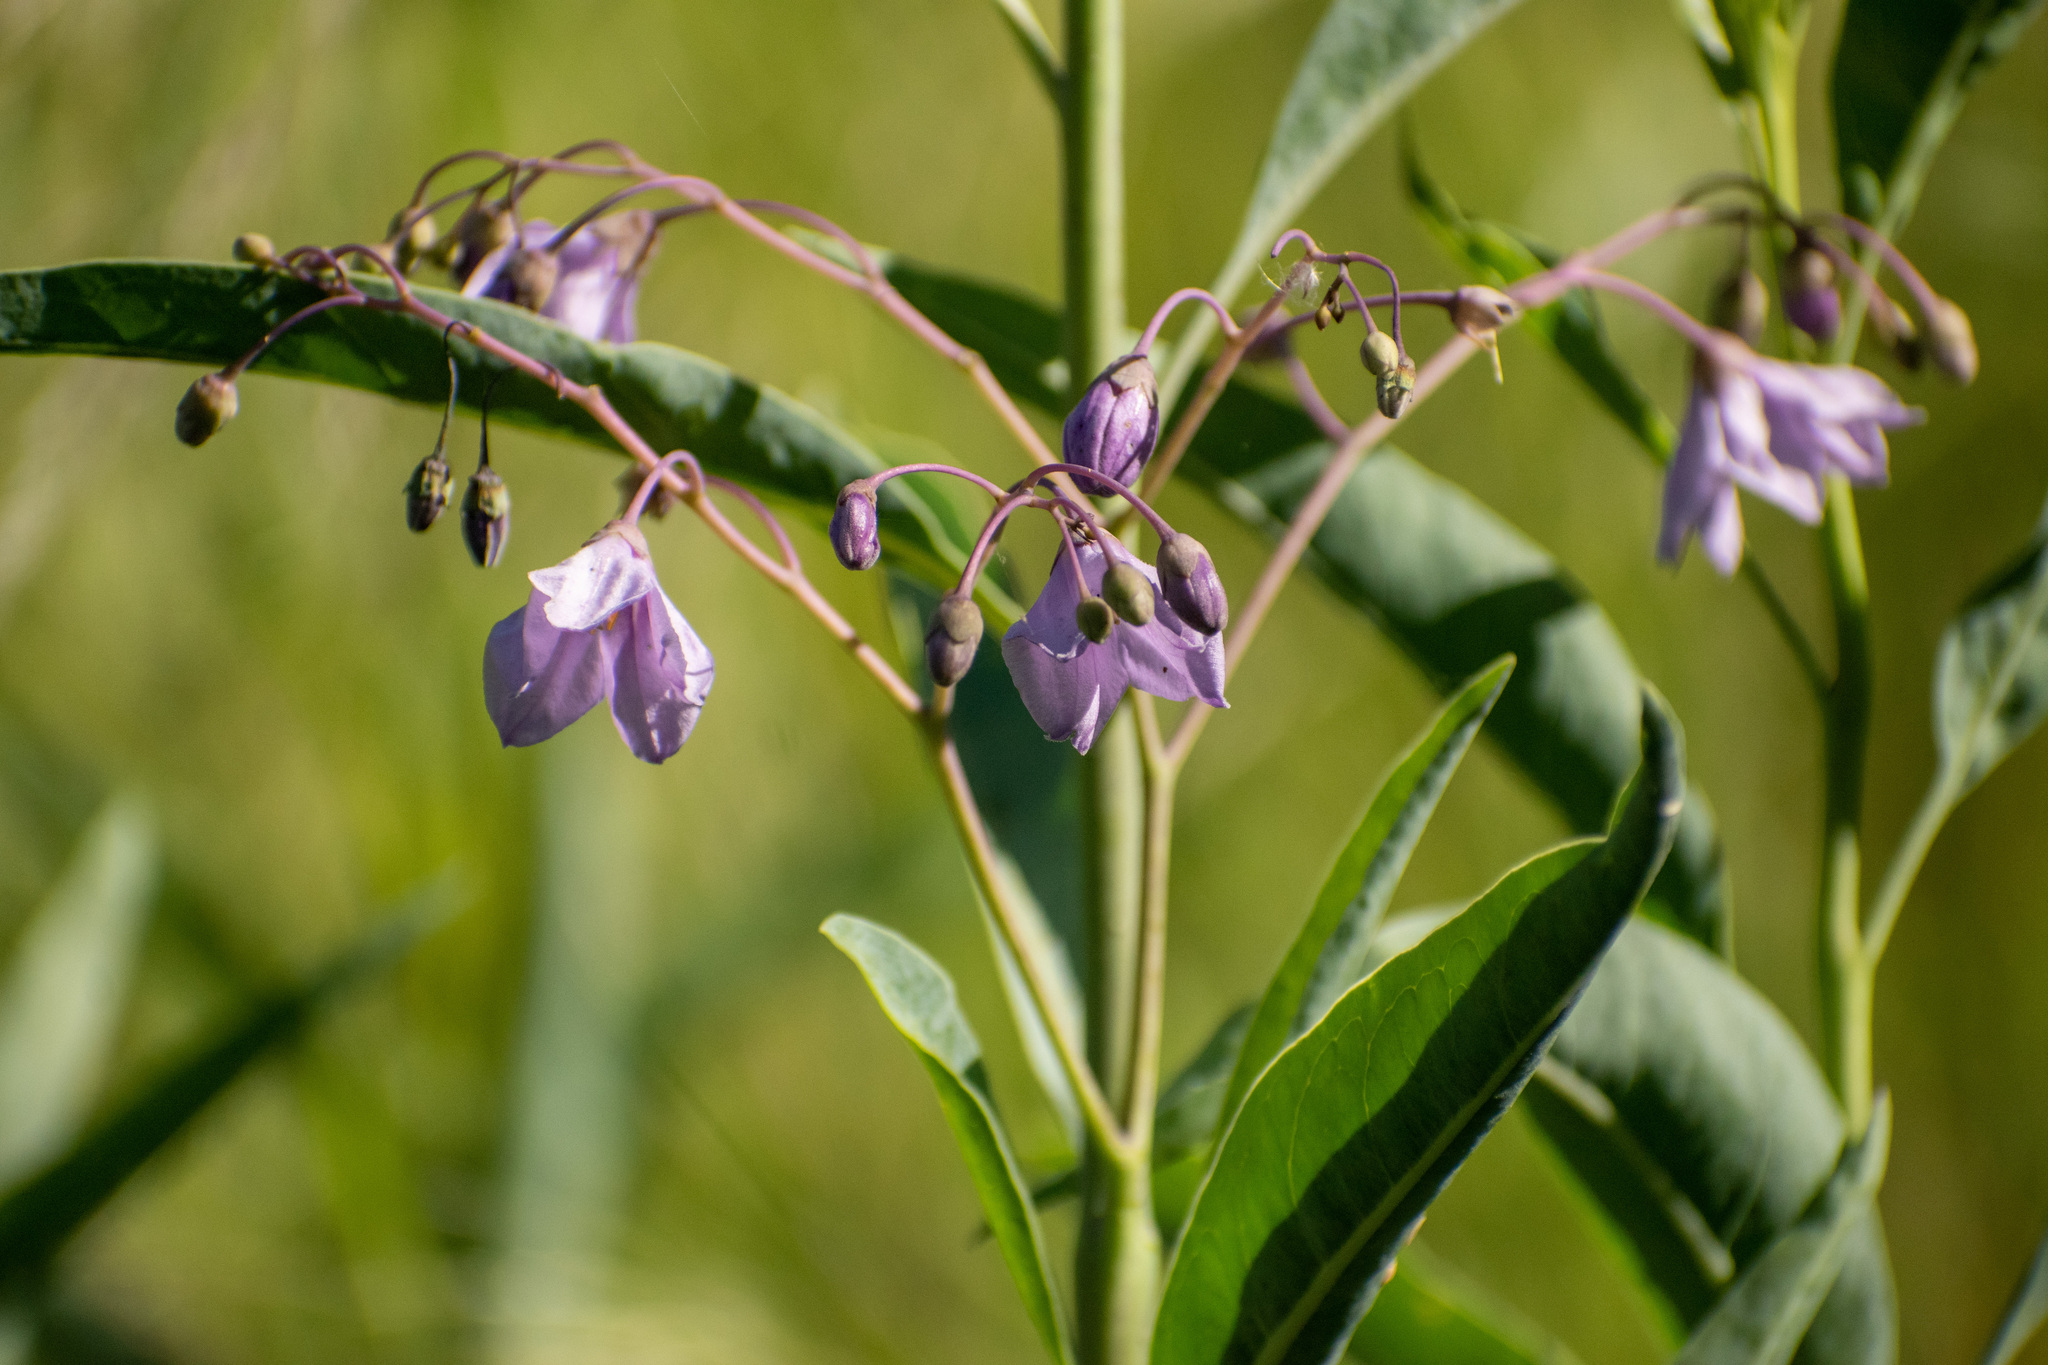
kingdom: Plantae
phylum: Tracheophyta
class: Magnoliopsida
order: Solanales
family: Solanaceae
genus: Solanum
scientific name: Solanum glaucophyllum
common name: Waxyleaf nightshade
